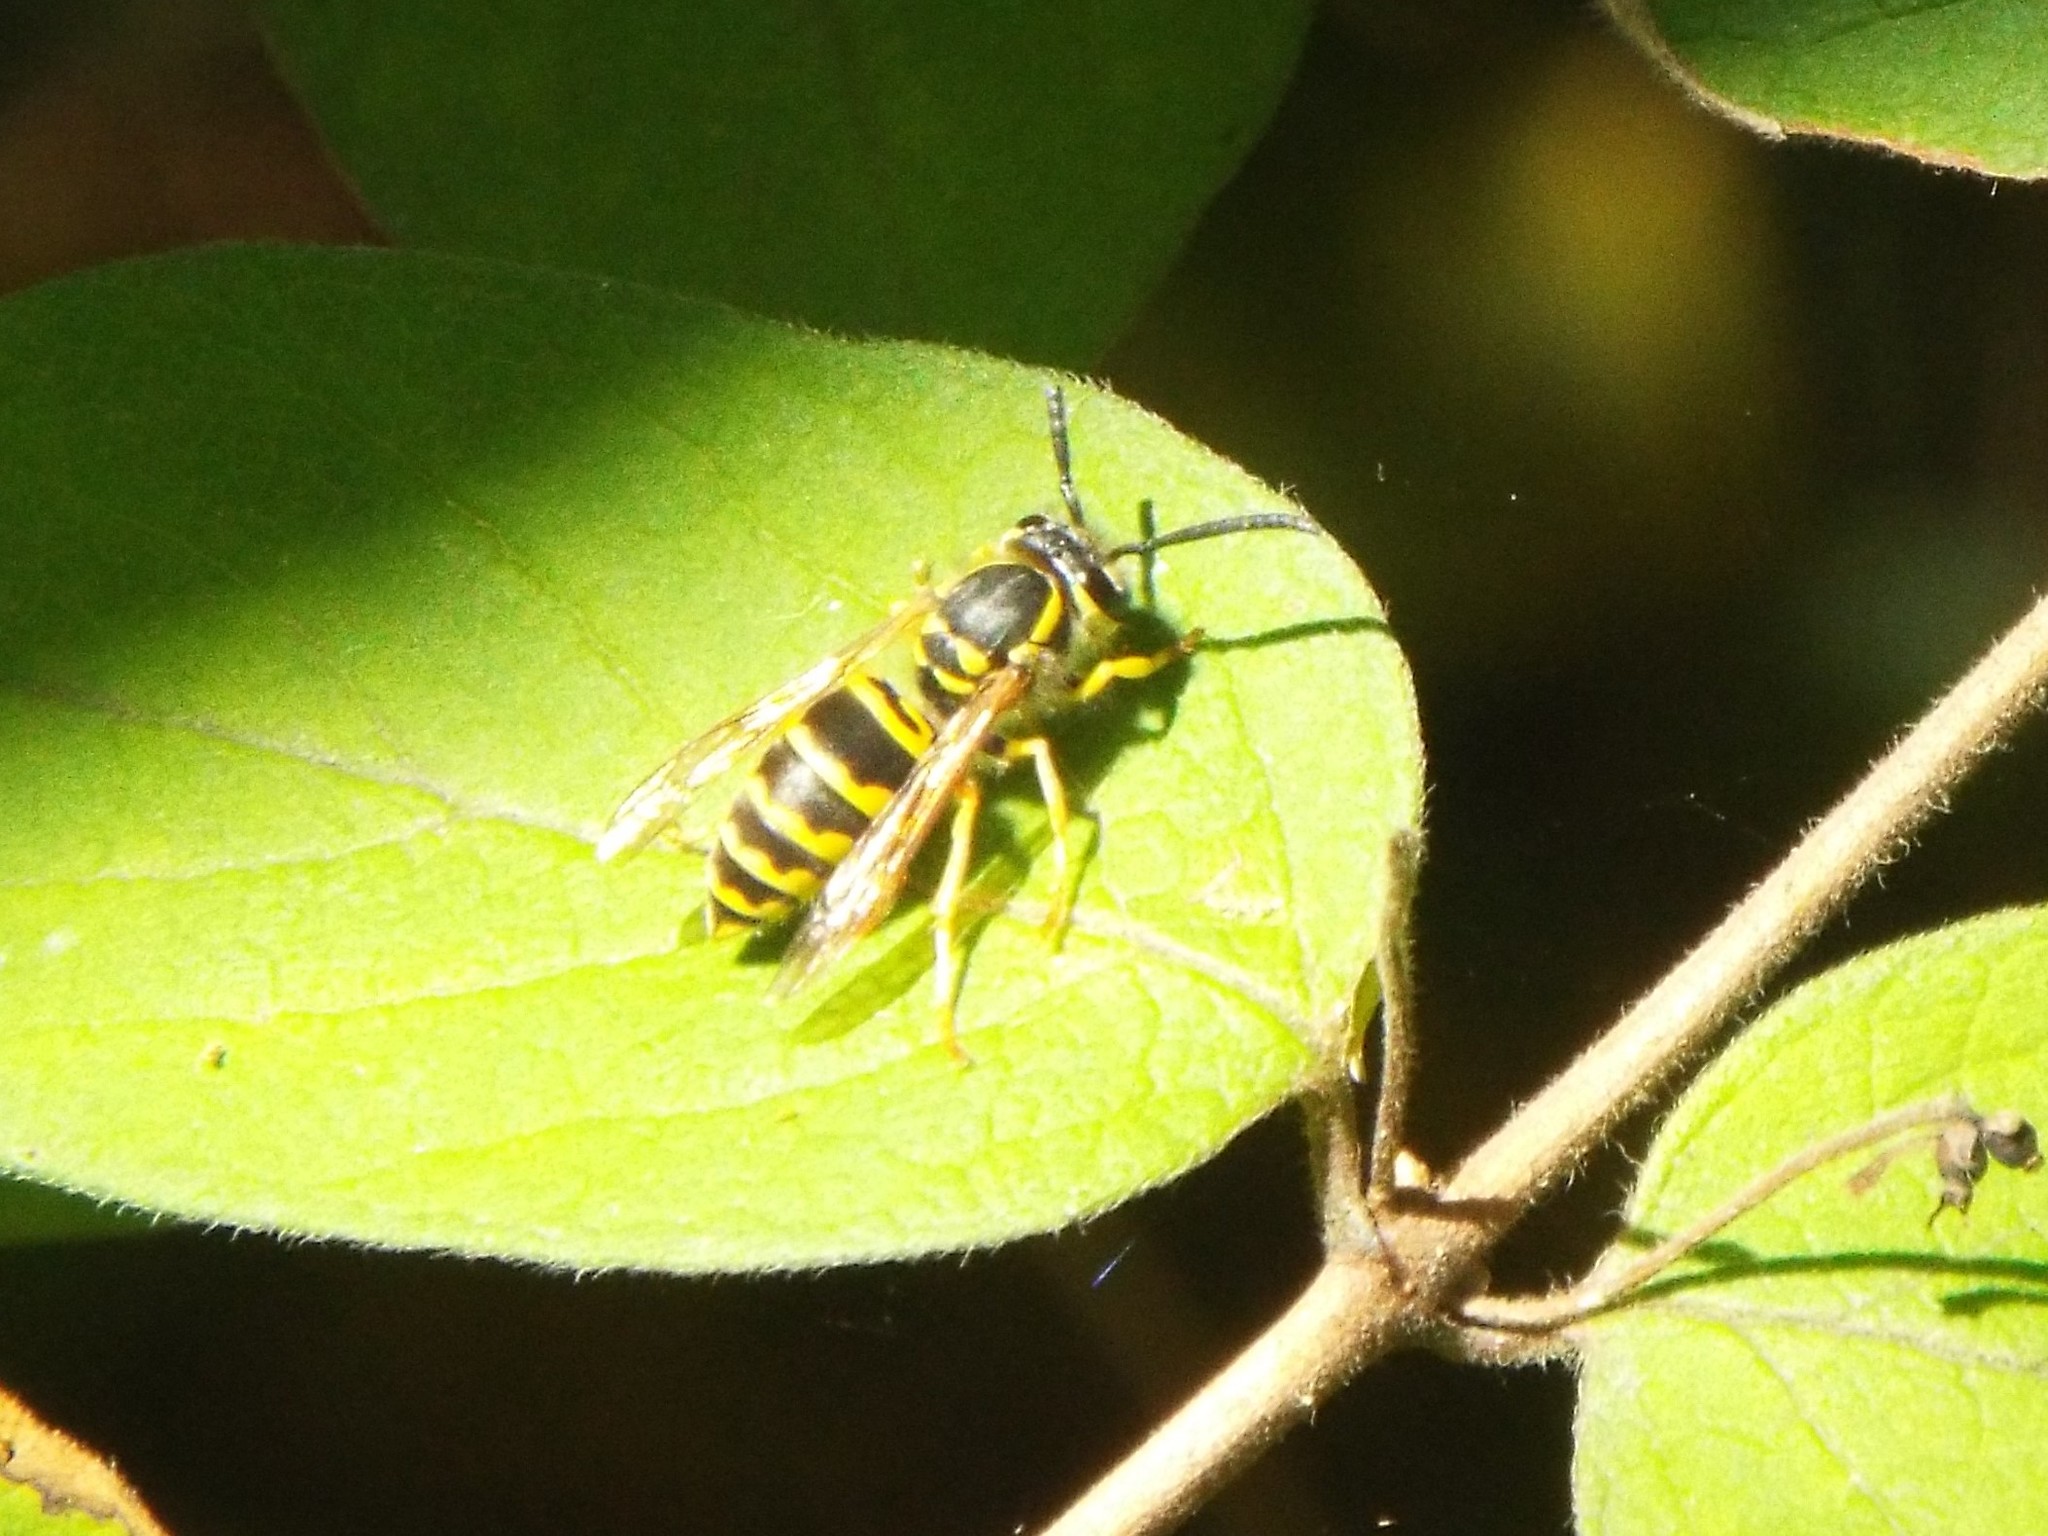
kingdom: Animalia
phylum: Arthropoda
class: Insecta
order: Hymenoptera
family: Vespidae
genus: Vespula
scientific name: Vespula maculifrons
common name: Eastern yellowjacket
